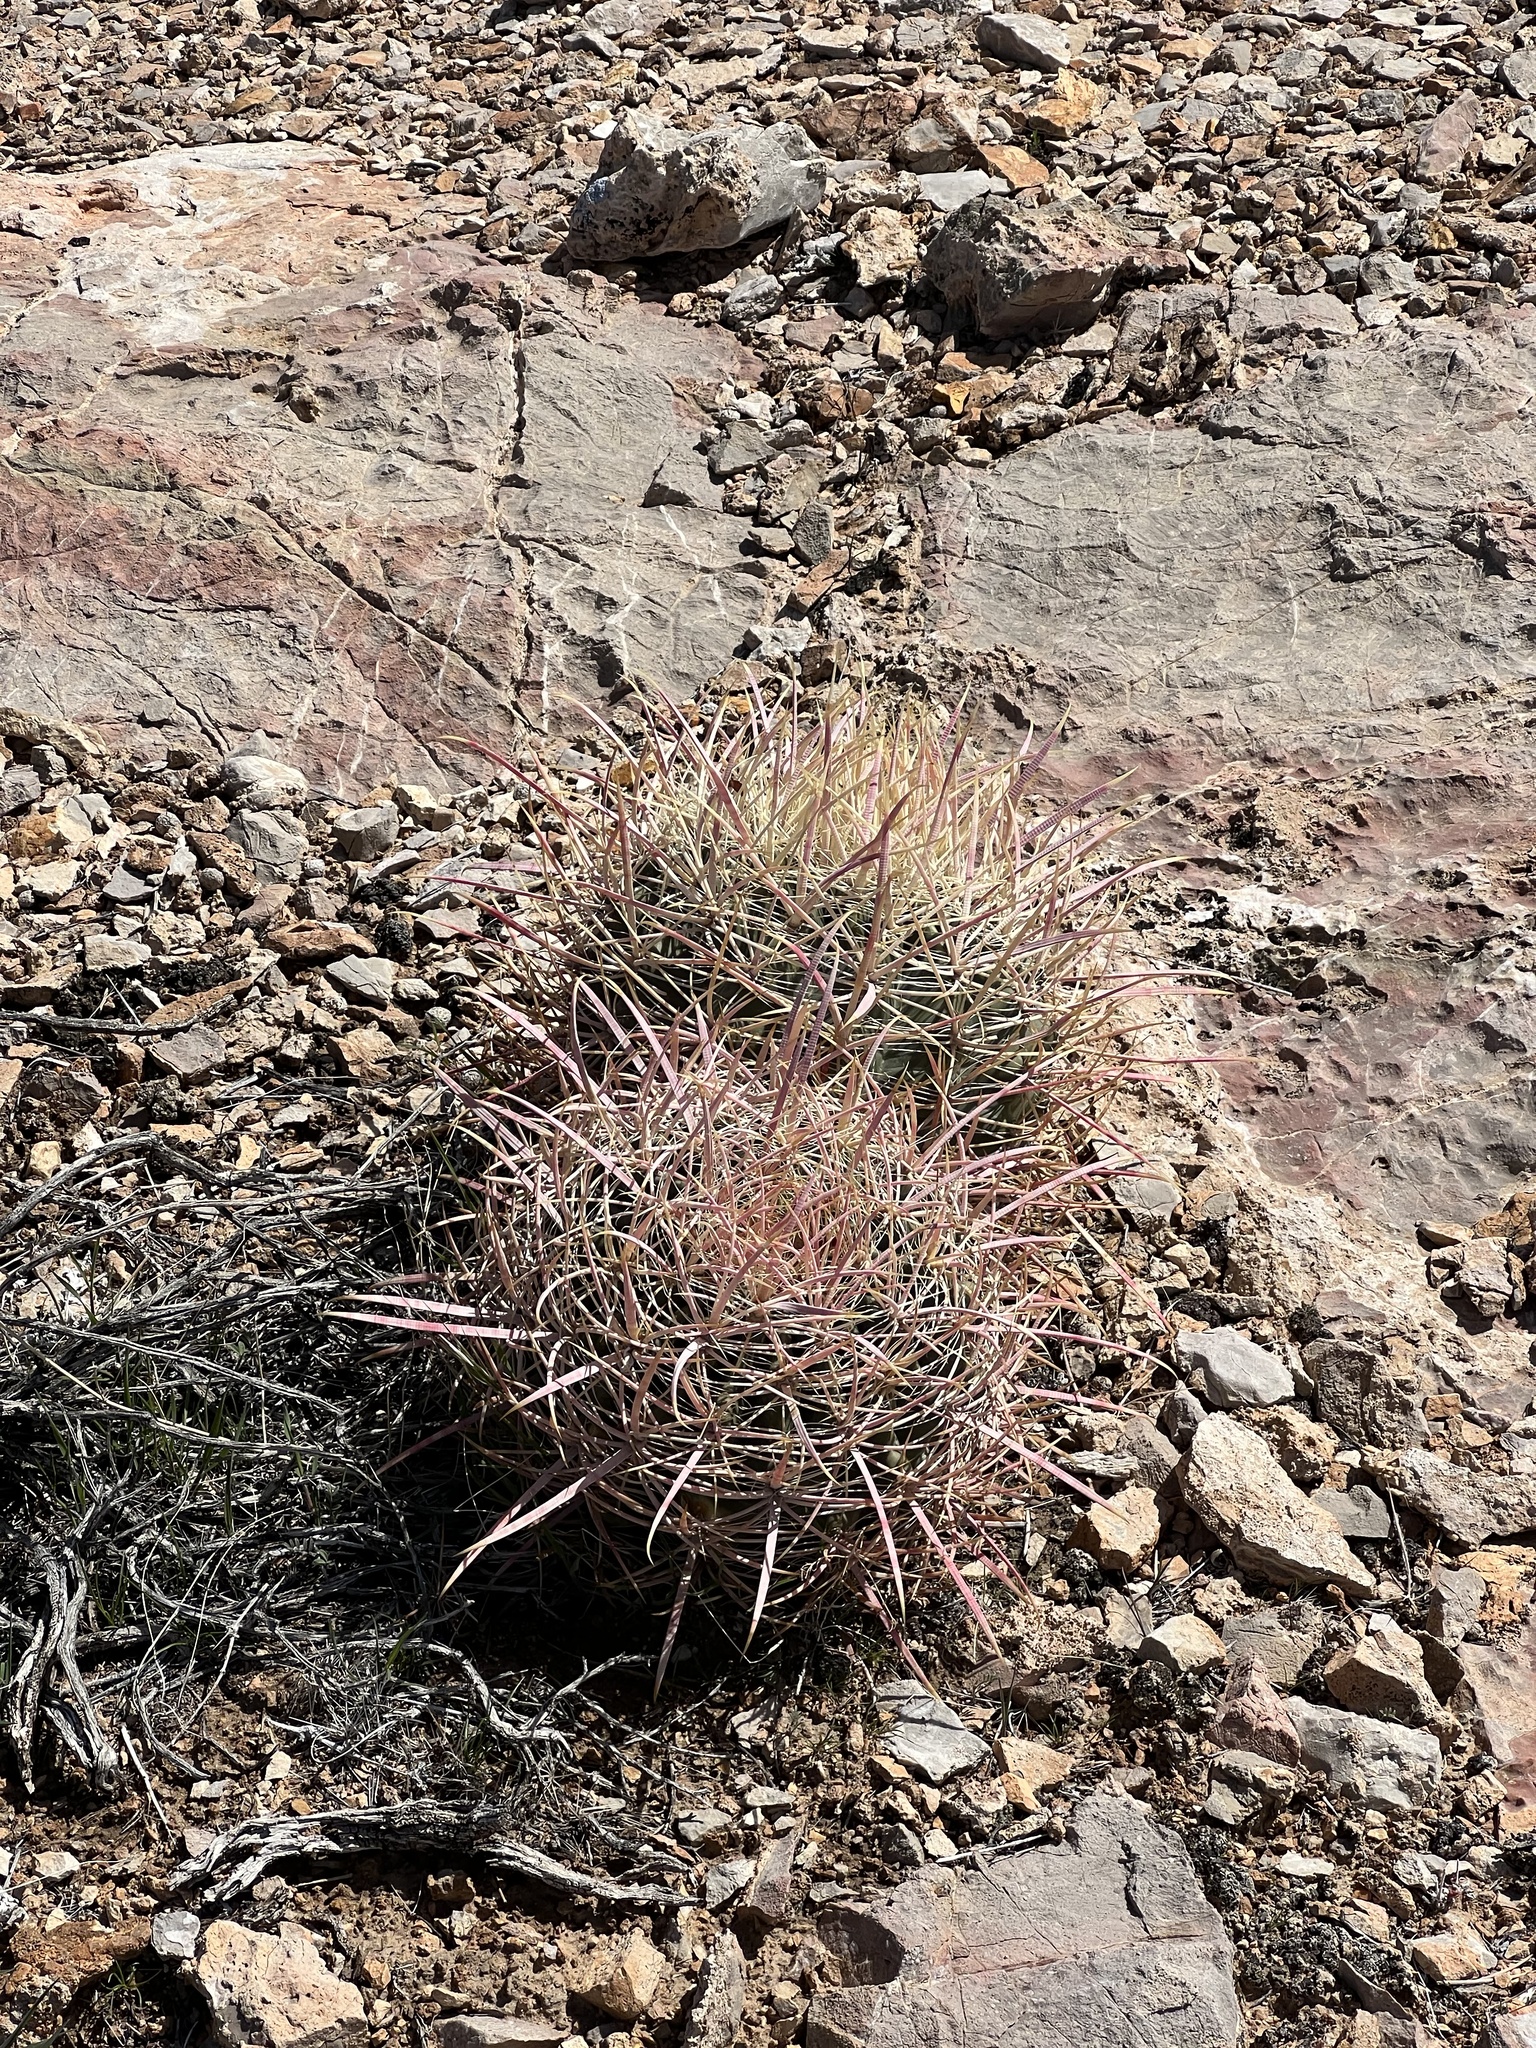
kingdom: Plantae
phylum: Tracheophyta
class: Magnoliopsida
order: Caryophyllales
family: Cactaceae
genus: Ferocactus
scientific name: Ferocactus cylindraceus
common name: California barrel cactus
